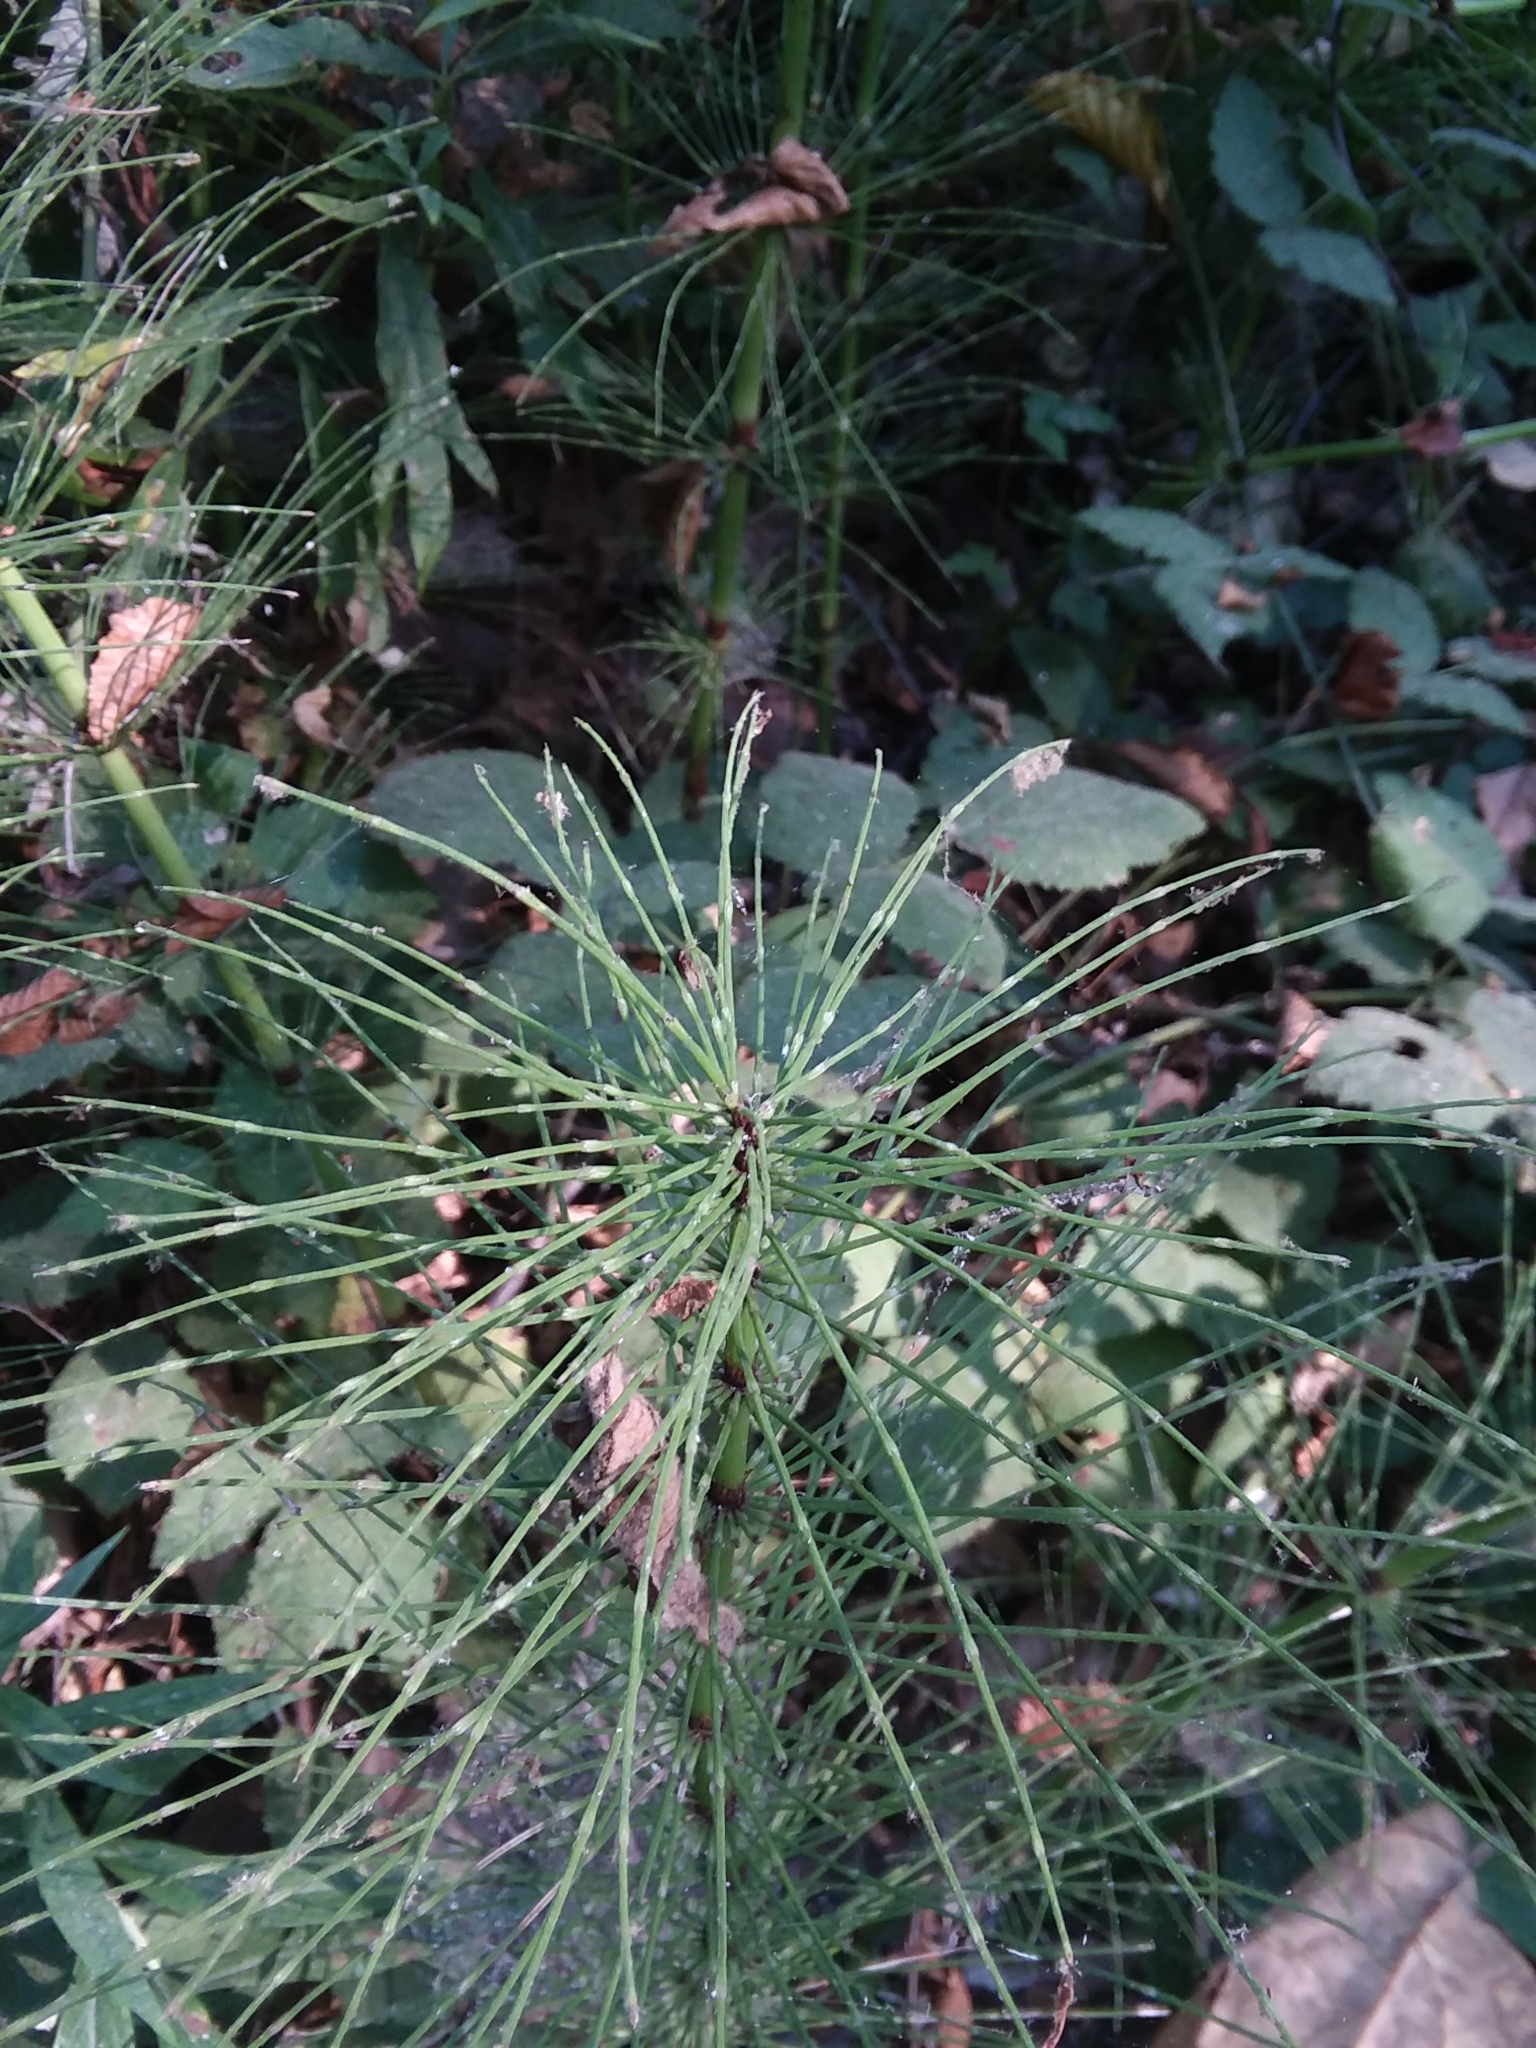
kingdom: Plantae
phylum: Tracheophyta
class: Polypodiopsida
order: Equisetales
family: Equisetaceae
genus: Equisetum
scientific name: Equisetum braunii
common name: Braun's horsetail
